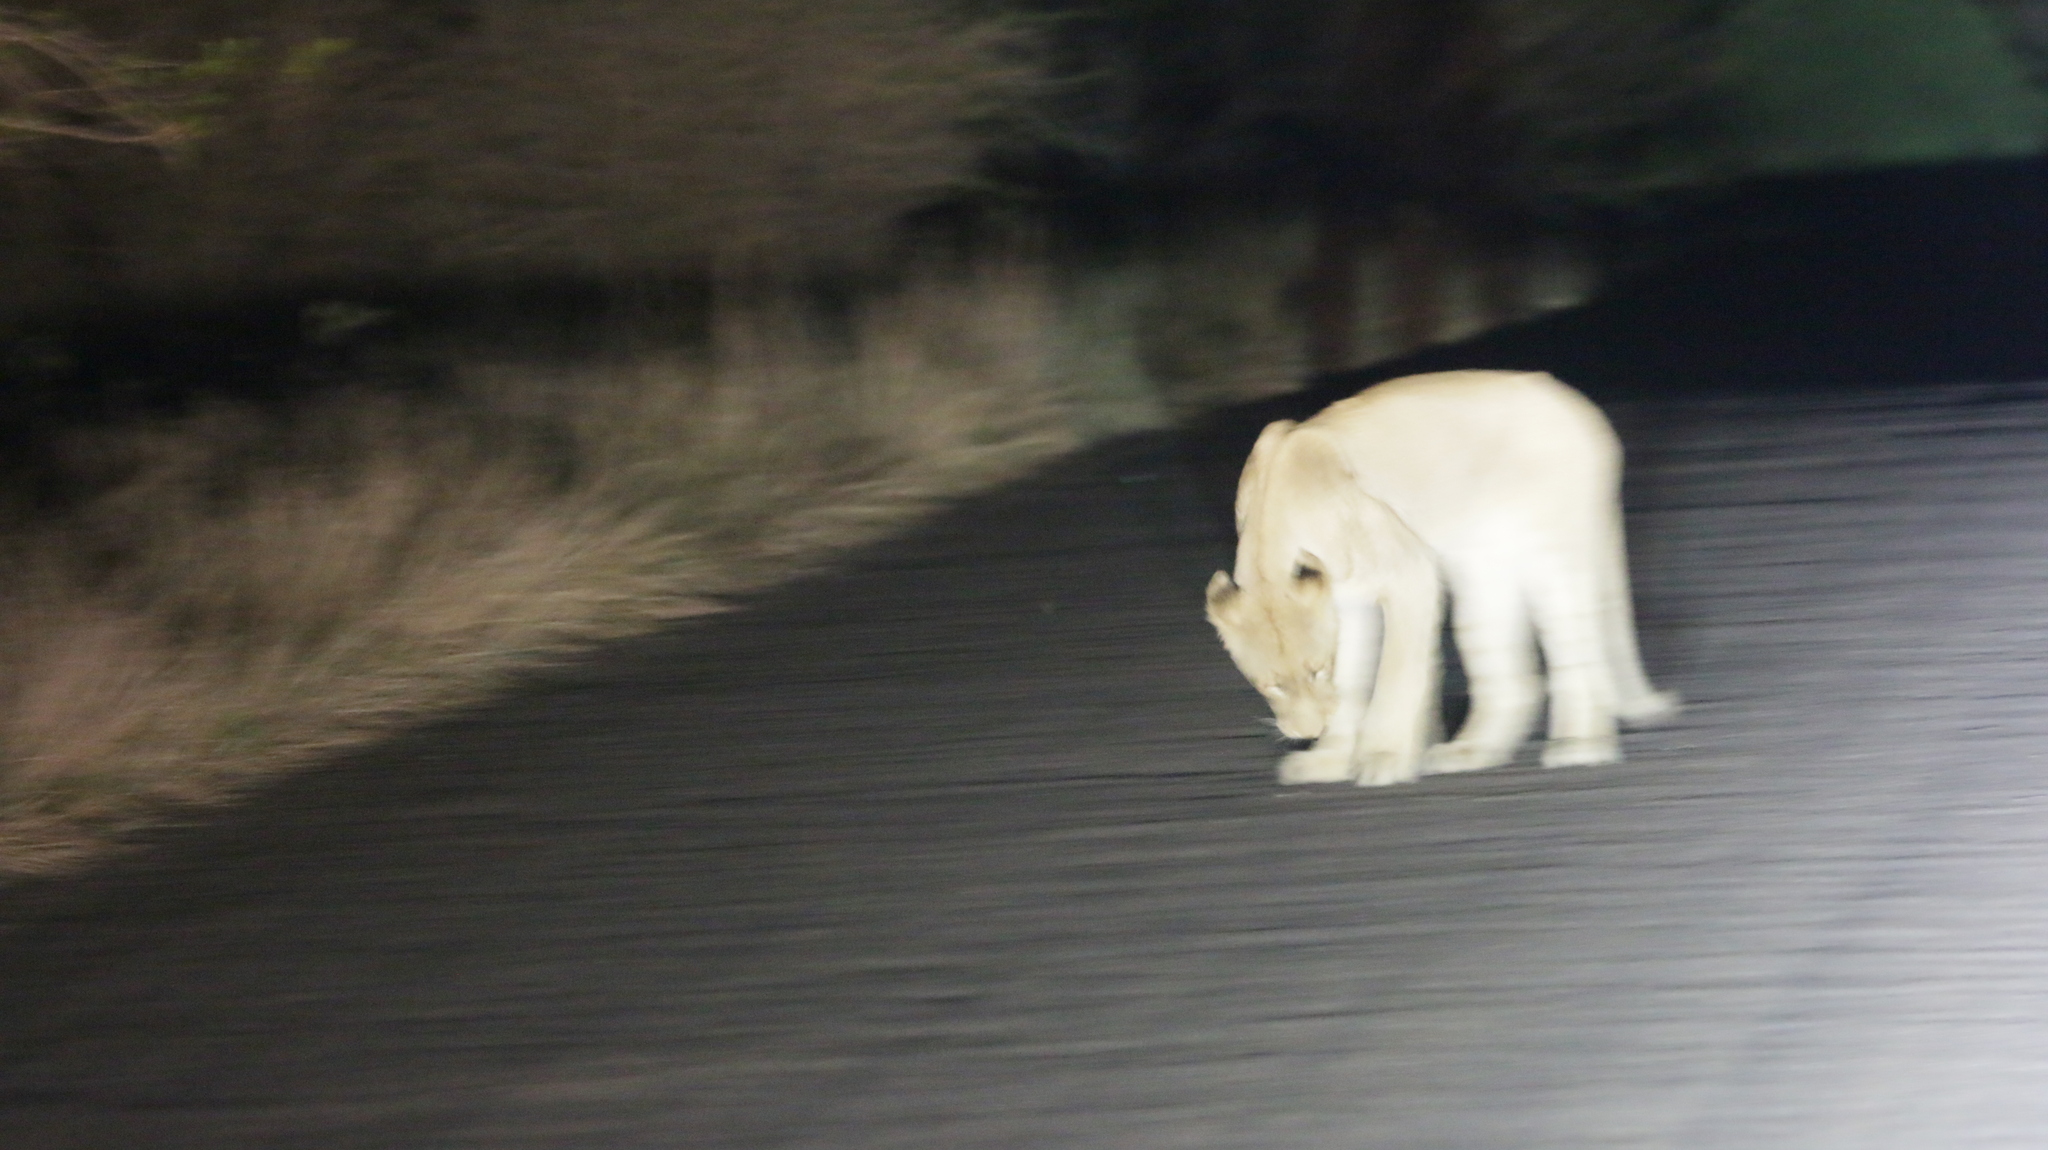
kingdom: Animalia
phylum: Chordata
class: Mammalia
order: Carnivora
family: Felidae
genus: Panthera
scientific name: Panthera leo
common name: Lion
